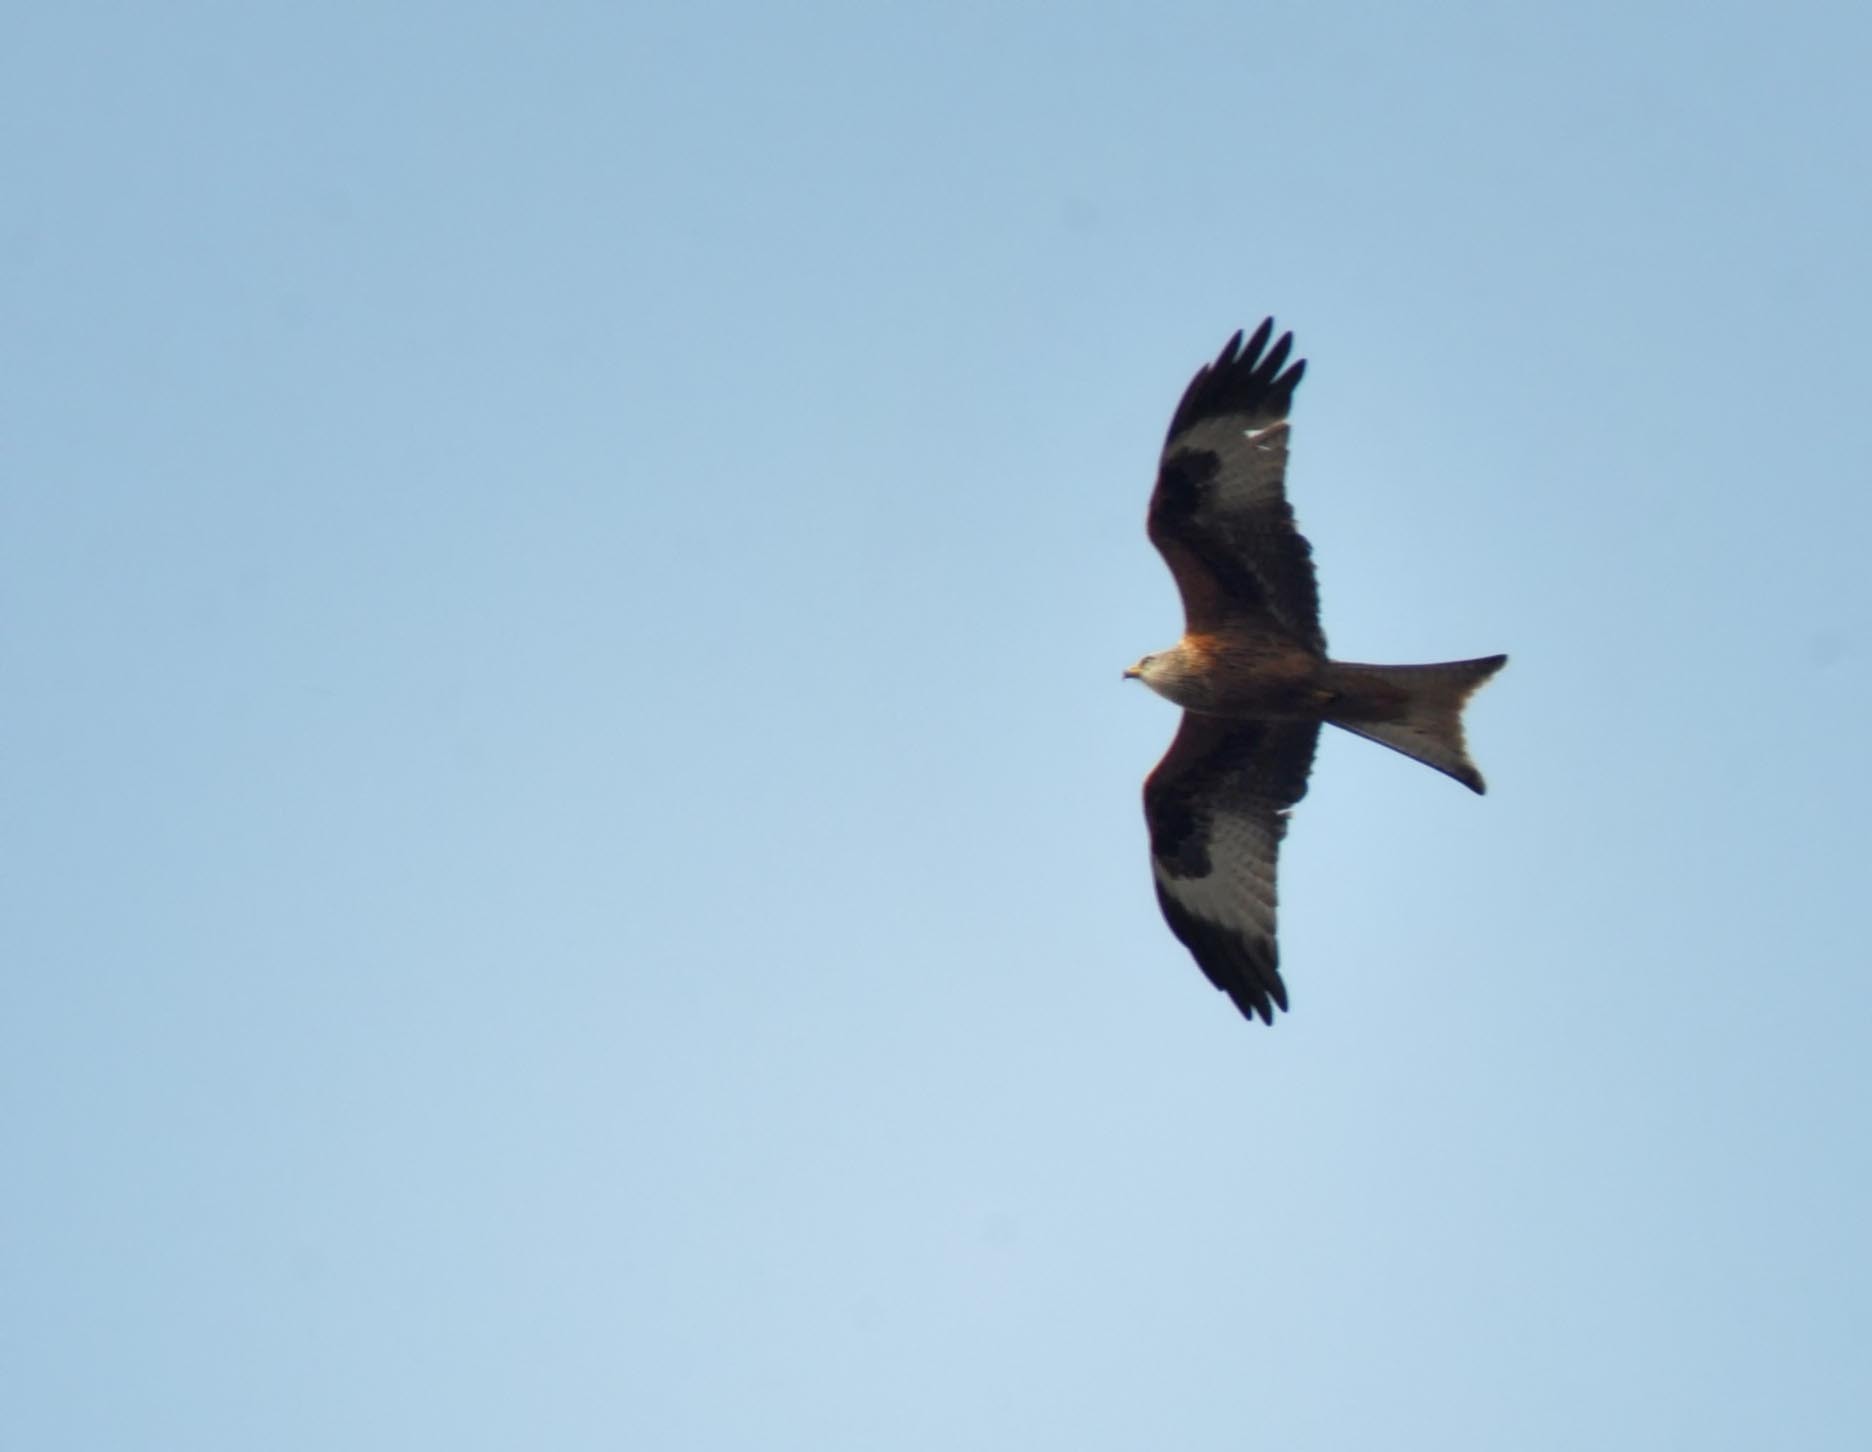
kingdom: Animalia
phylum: Chordata
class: Aves
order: Accipitriformes
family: Accipitridae
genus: Milvus
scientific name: Milvus milvus
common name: Red kite
